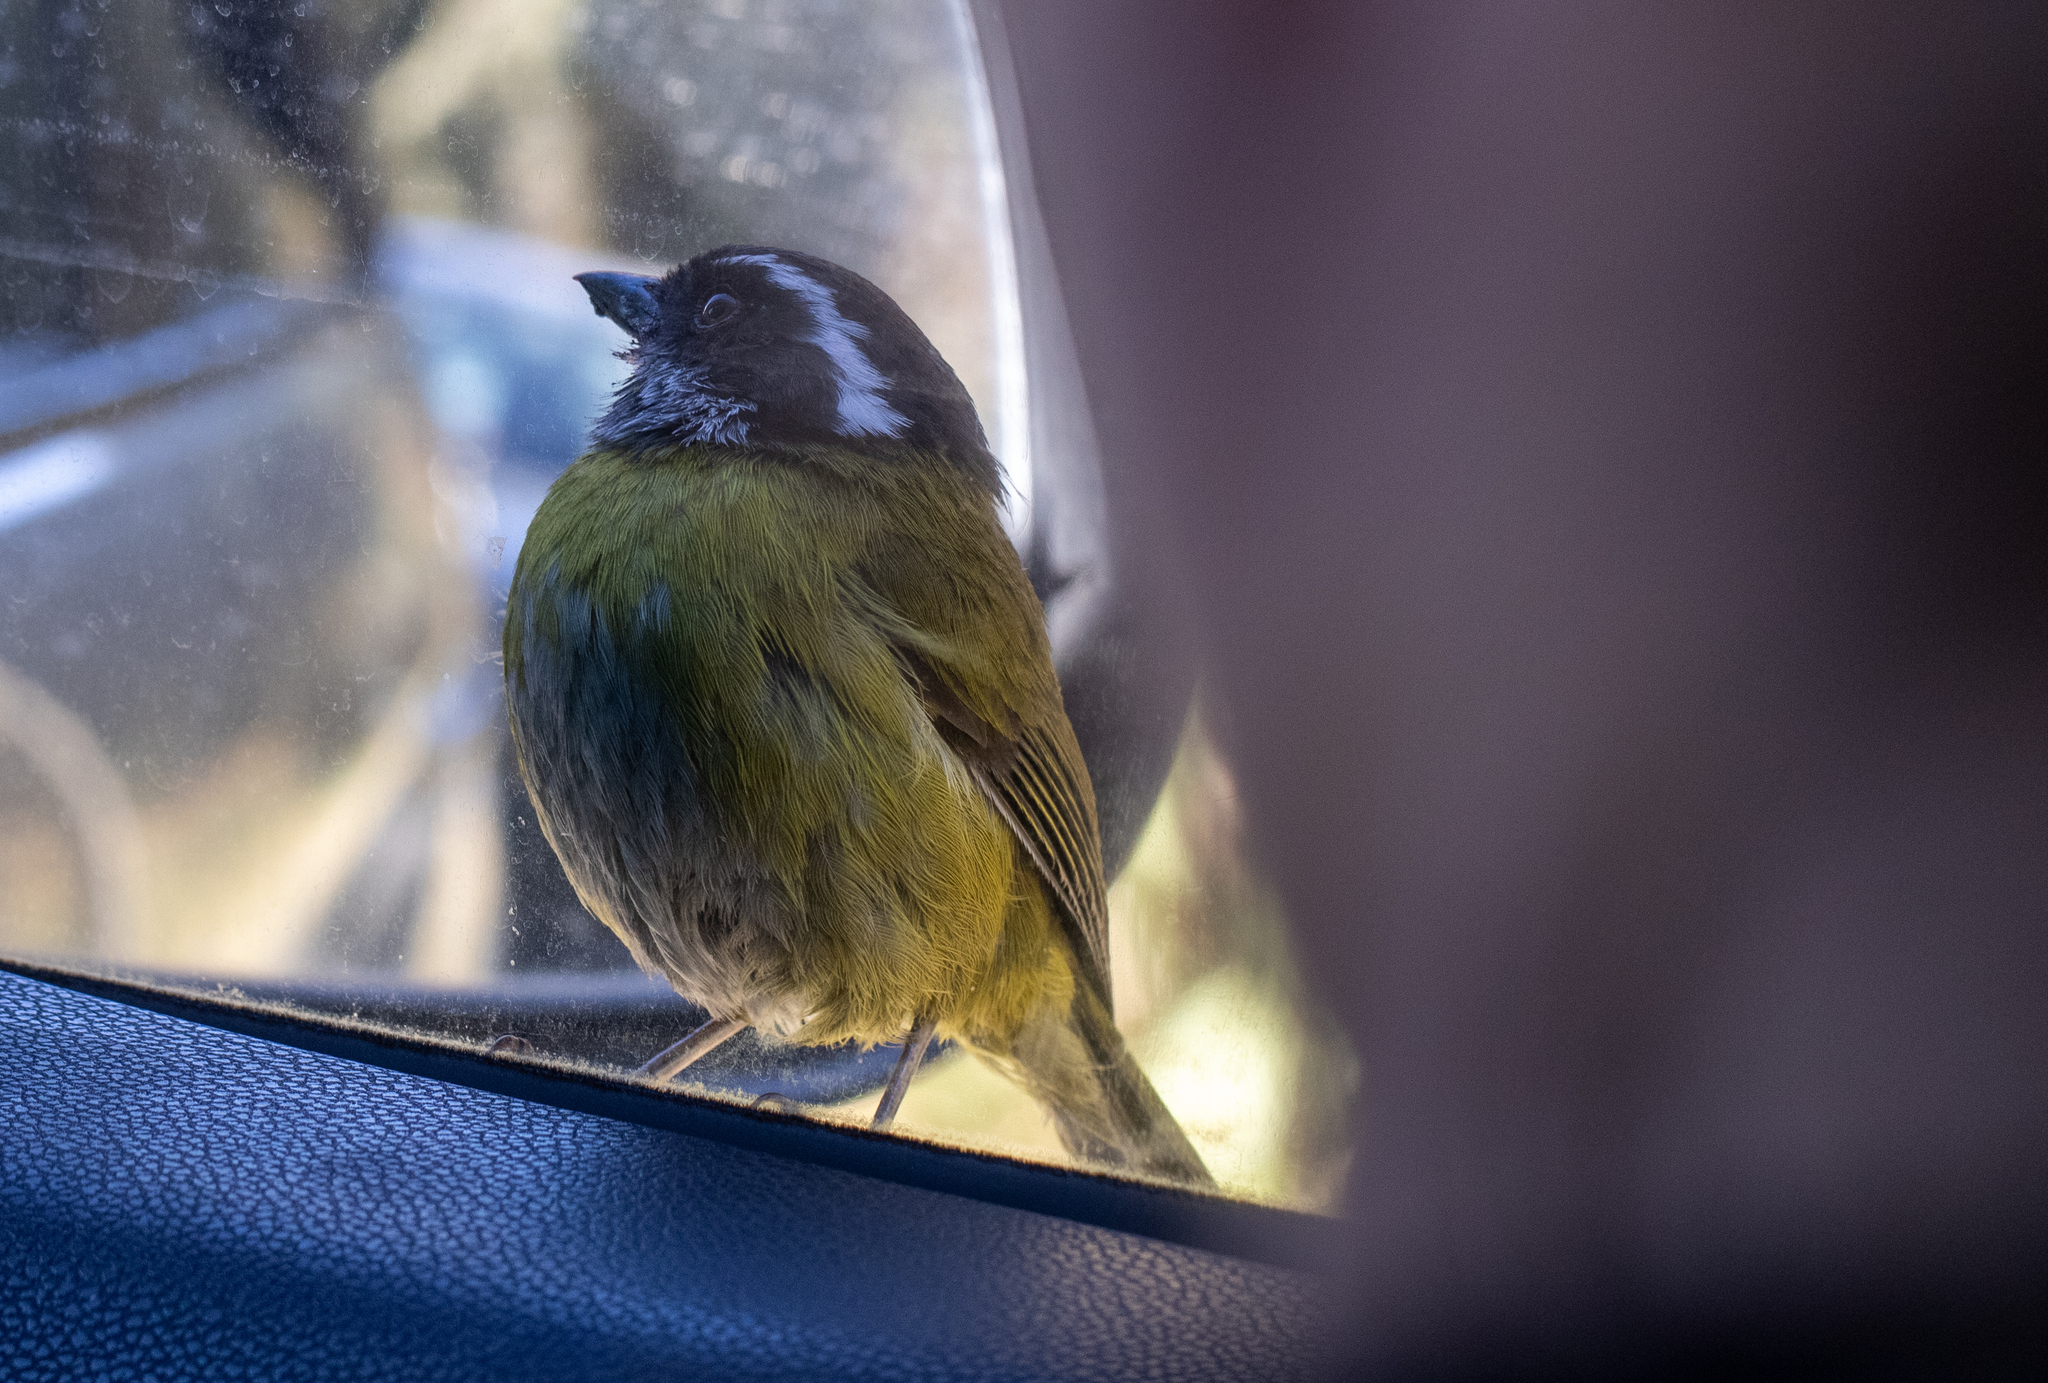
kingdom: Animalia
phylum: Chordata
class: Aves
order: Passeriformes
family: Passerellidae
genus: Chlorospingus
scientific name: Chlorospingus pileatus
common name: Sooty-capped bush-tanager
